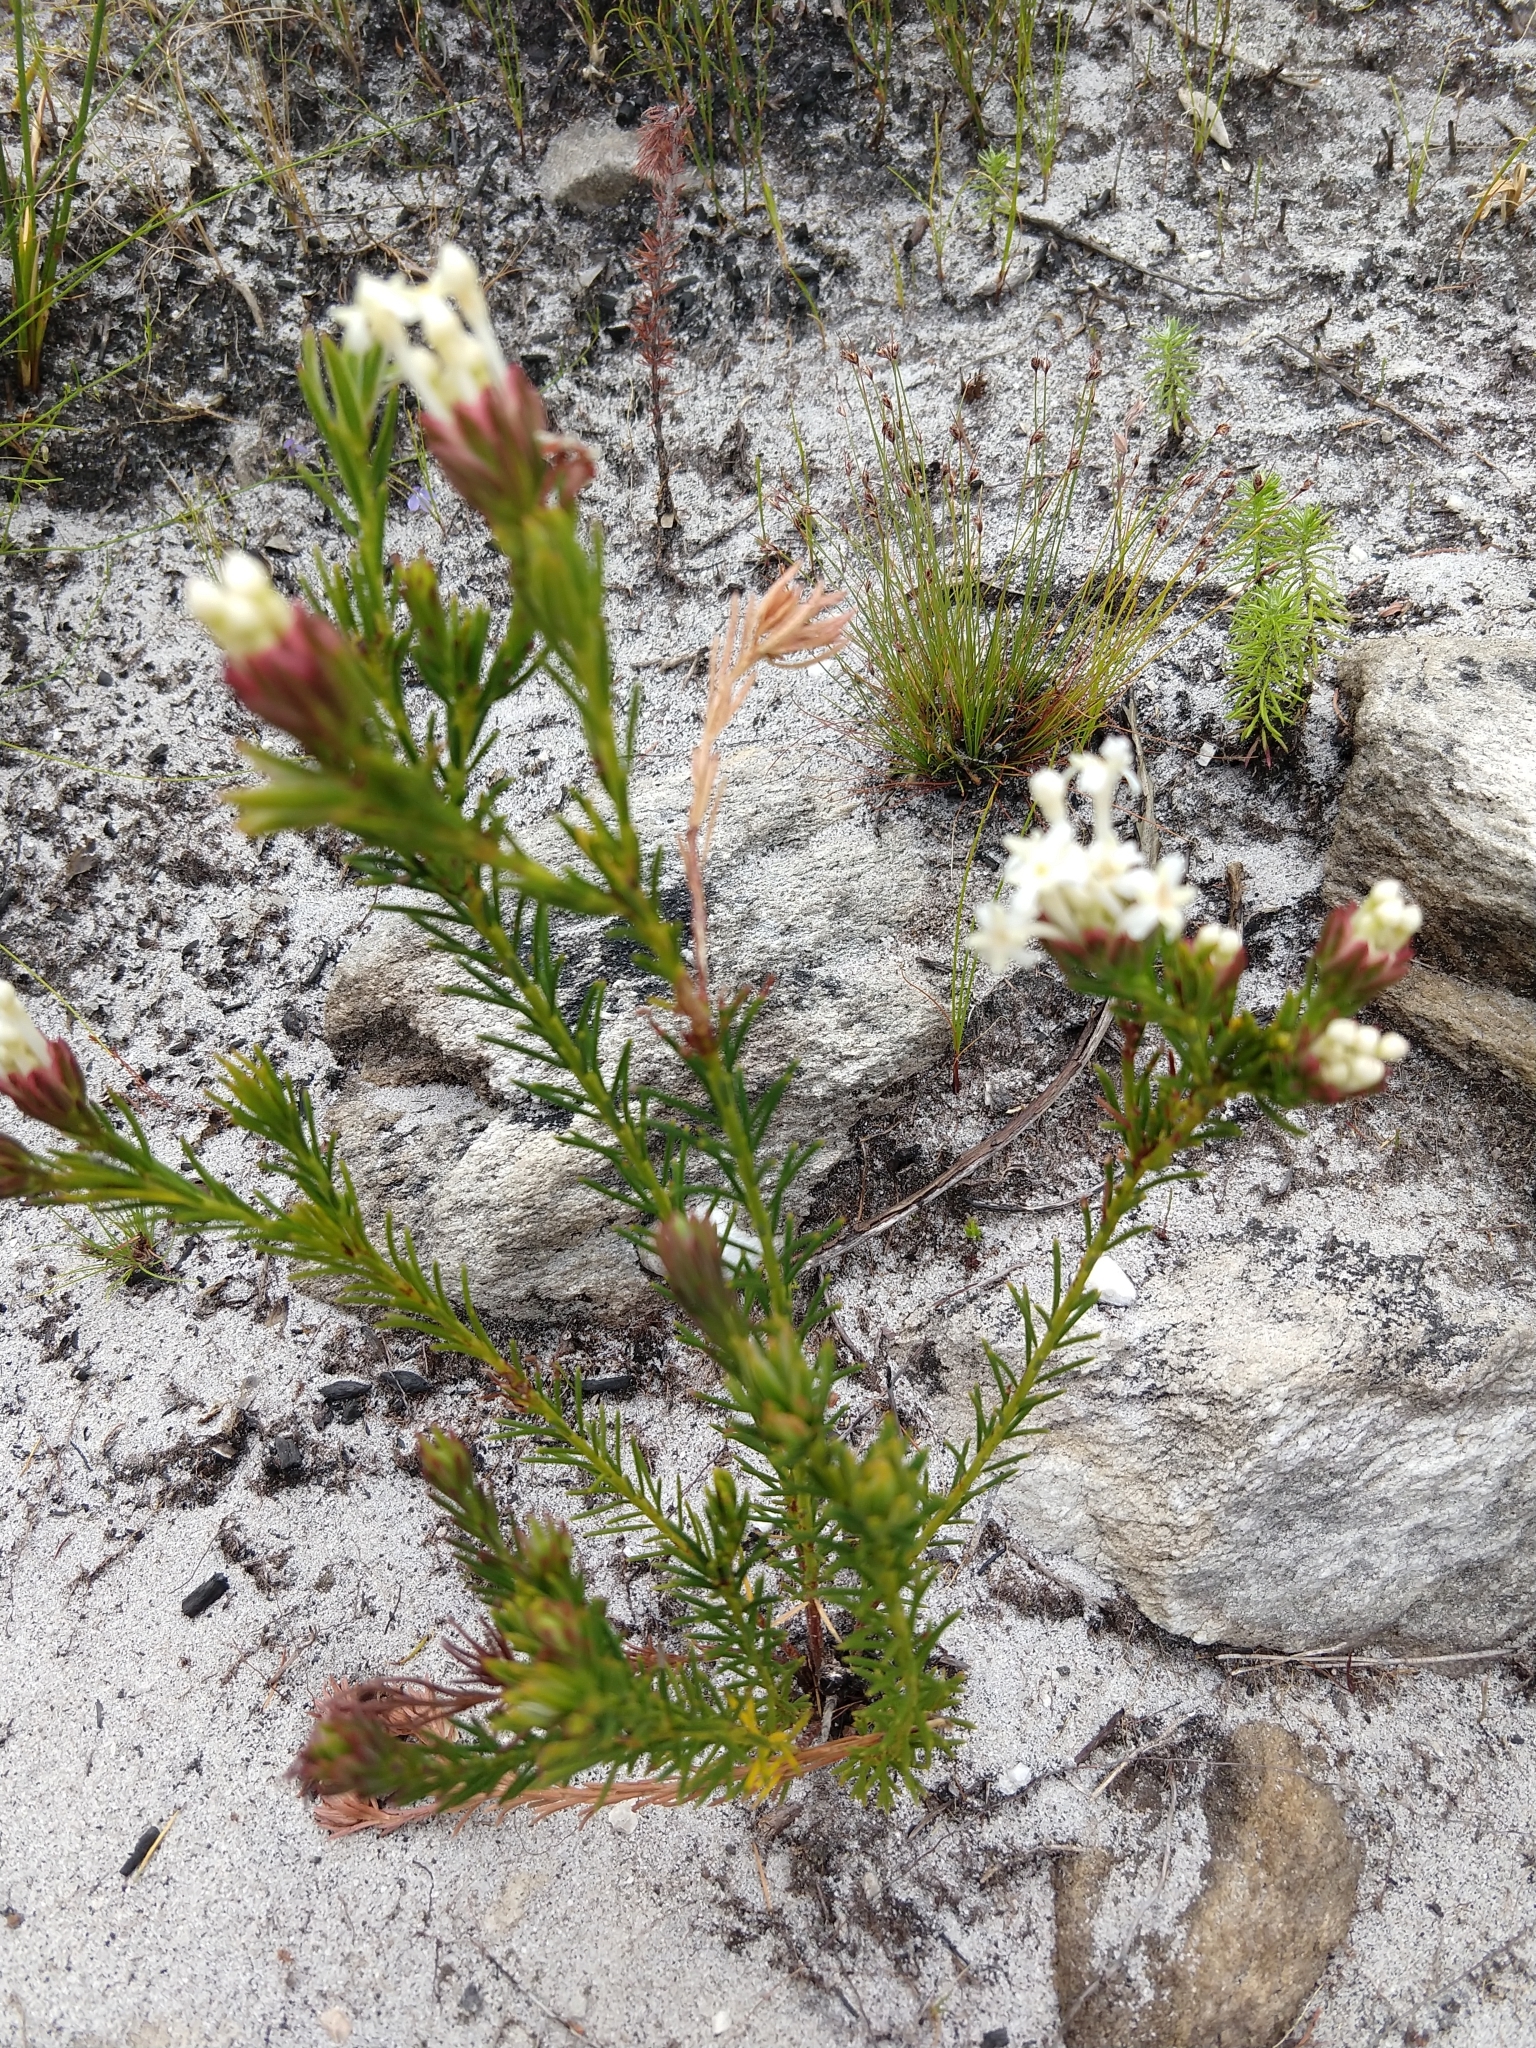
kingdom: Plantae
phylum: Tracheophyta
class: Magnoliopsida
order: Malvales
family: Thymelaeaceae
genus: Gnidia
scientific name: Gnidia pinifolia
